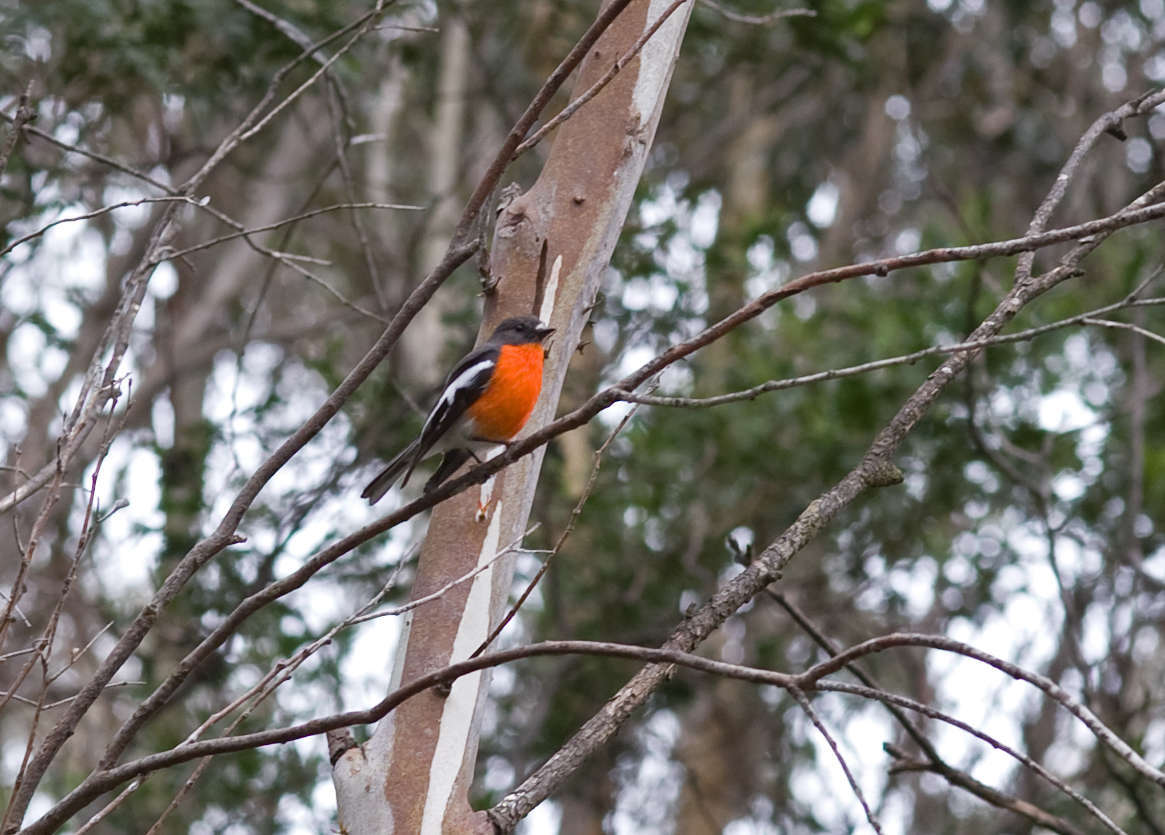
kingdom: Animalia
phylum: Chordata
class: Aves
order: Passeriformes
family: Petroicidae
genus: Petroica
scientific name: Petroica phoenicea
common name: Flame robin
